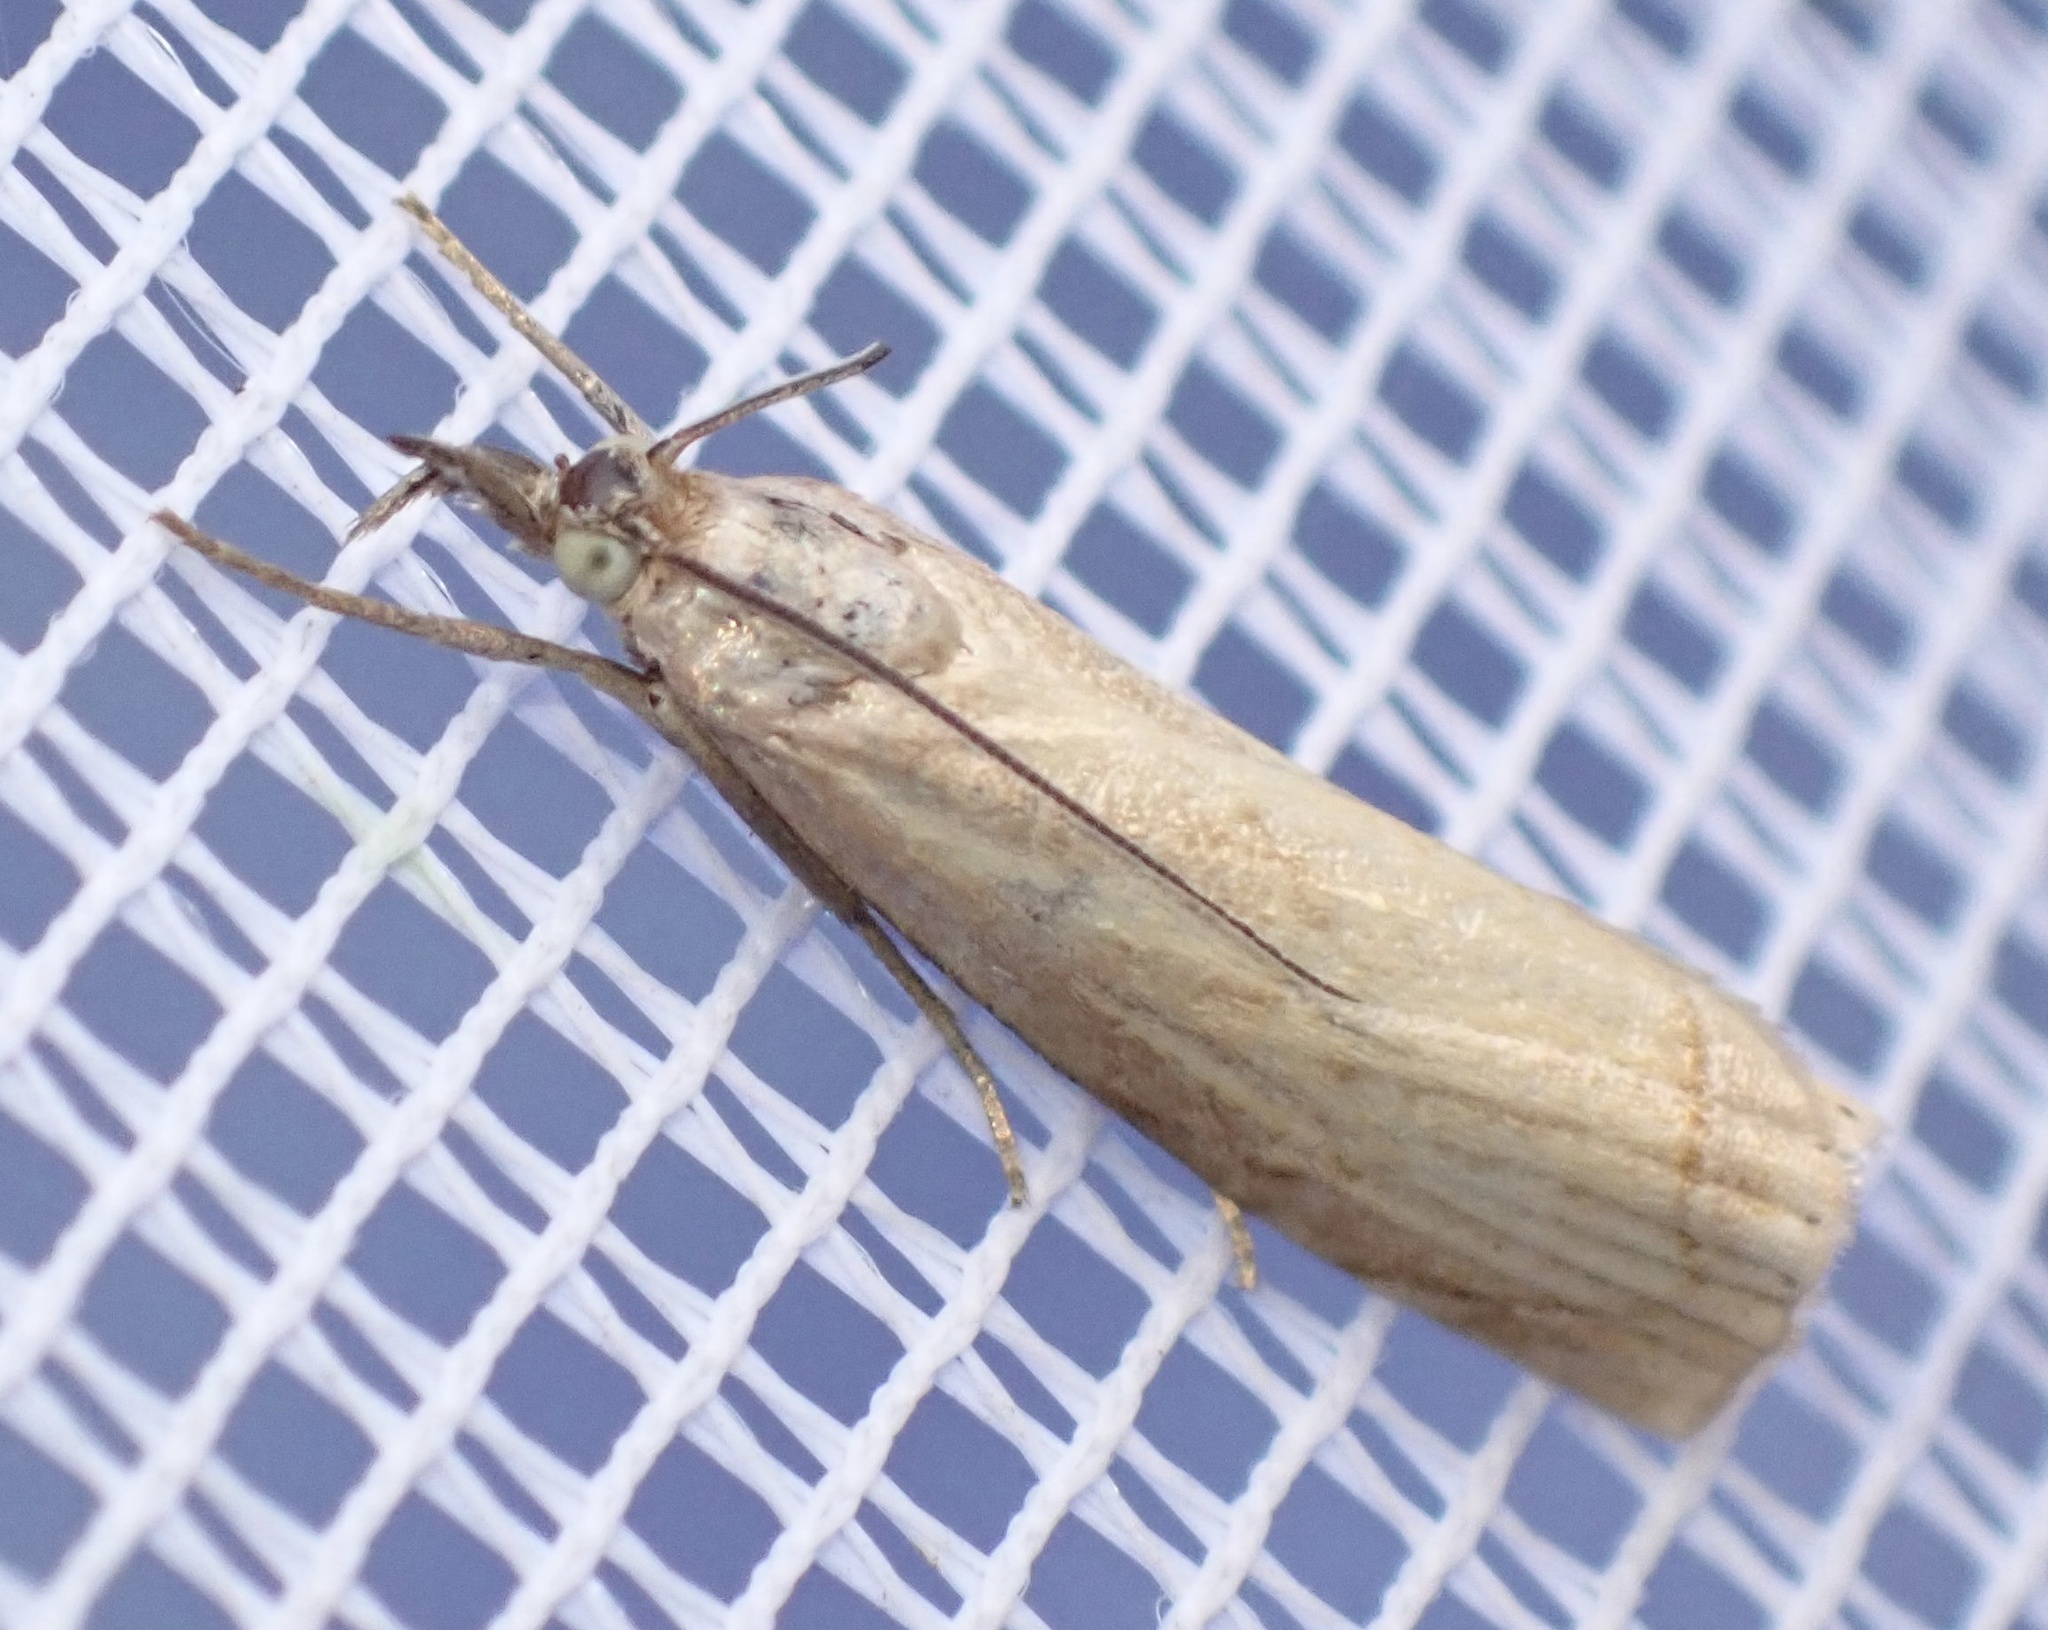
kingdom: Animalia
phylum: Arthropoda
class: Insecta
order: Lepidoptera
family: Crambidae
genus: Chrysoteuchia
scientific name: Chrysoteuchia culmella
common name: Garden grass-veneer
